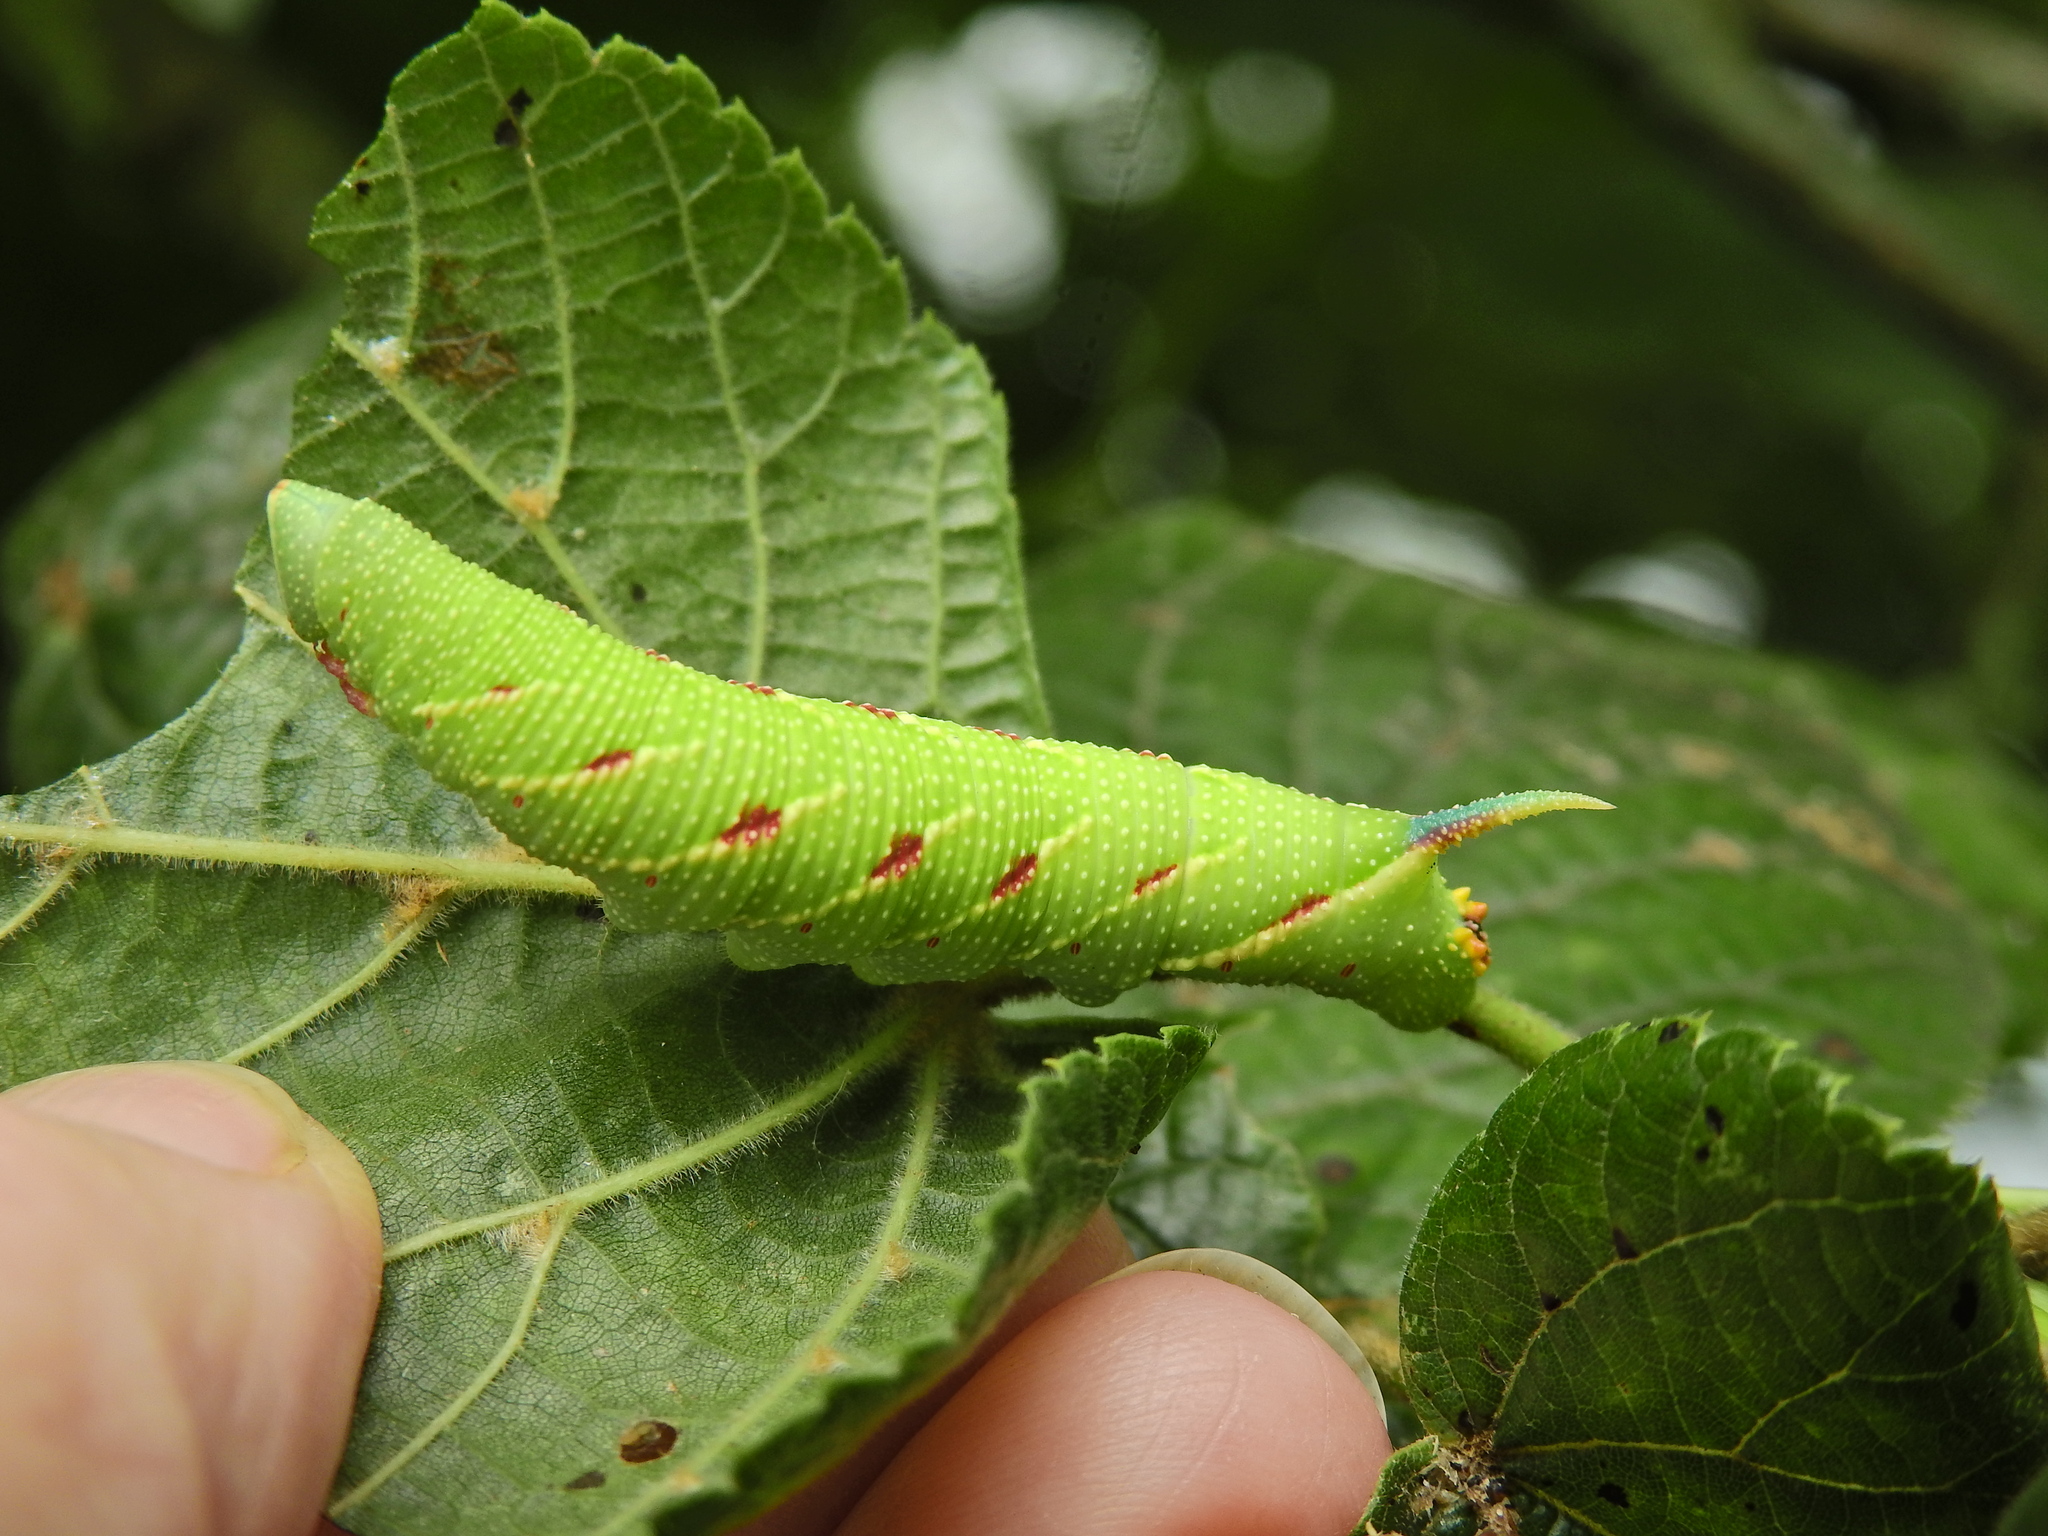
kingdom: Animalia
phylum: Arthropoda
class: Insecta
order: Lepidoptera
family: Sphingidae
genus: Mimas
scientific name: Mimas tiliae
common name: Lime hawk-moth
